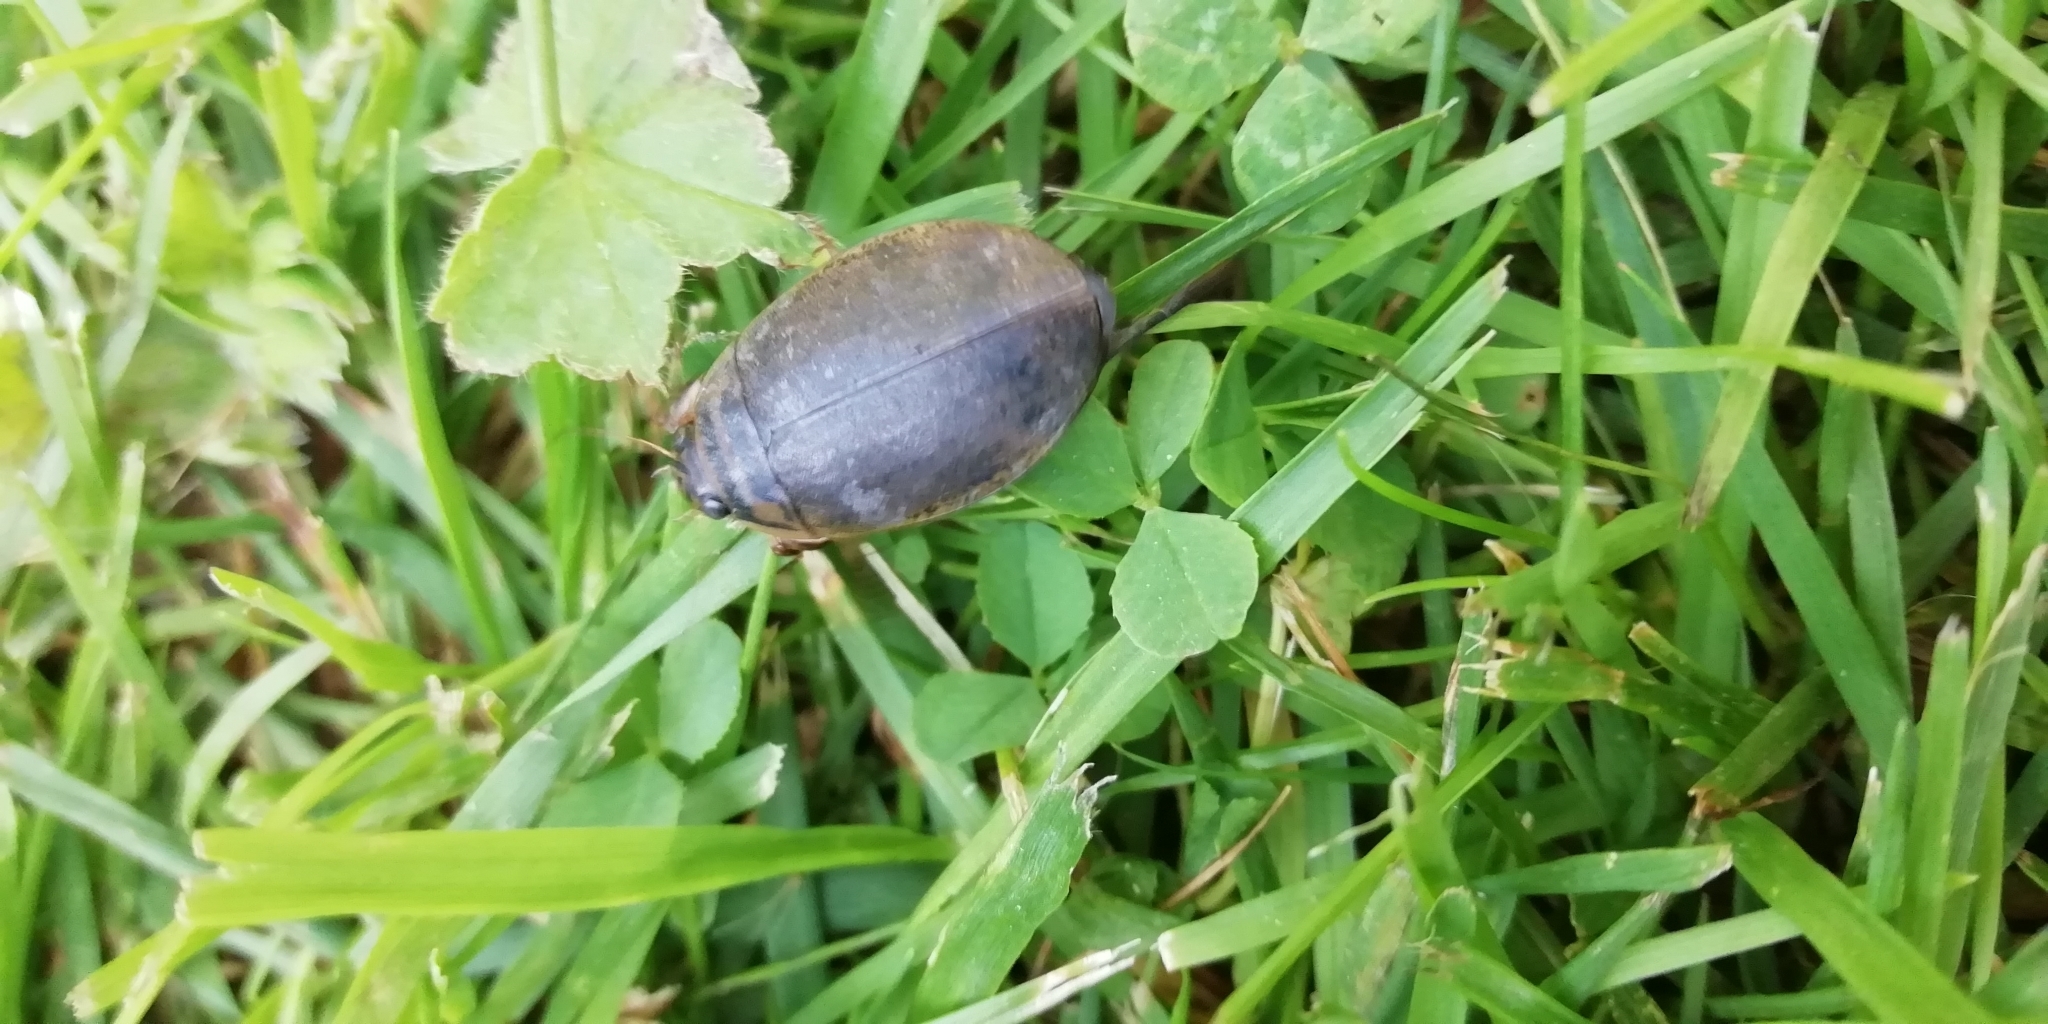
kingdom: Animalia
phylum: Arthropoda
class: Insecta
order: Coleoptera
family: Dytiscidae
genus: Acilius
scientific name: Acilius sulcatus
